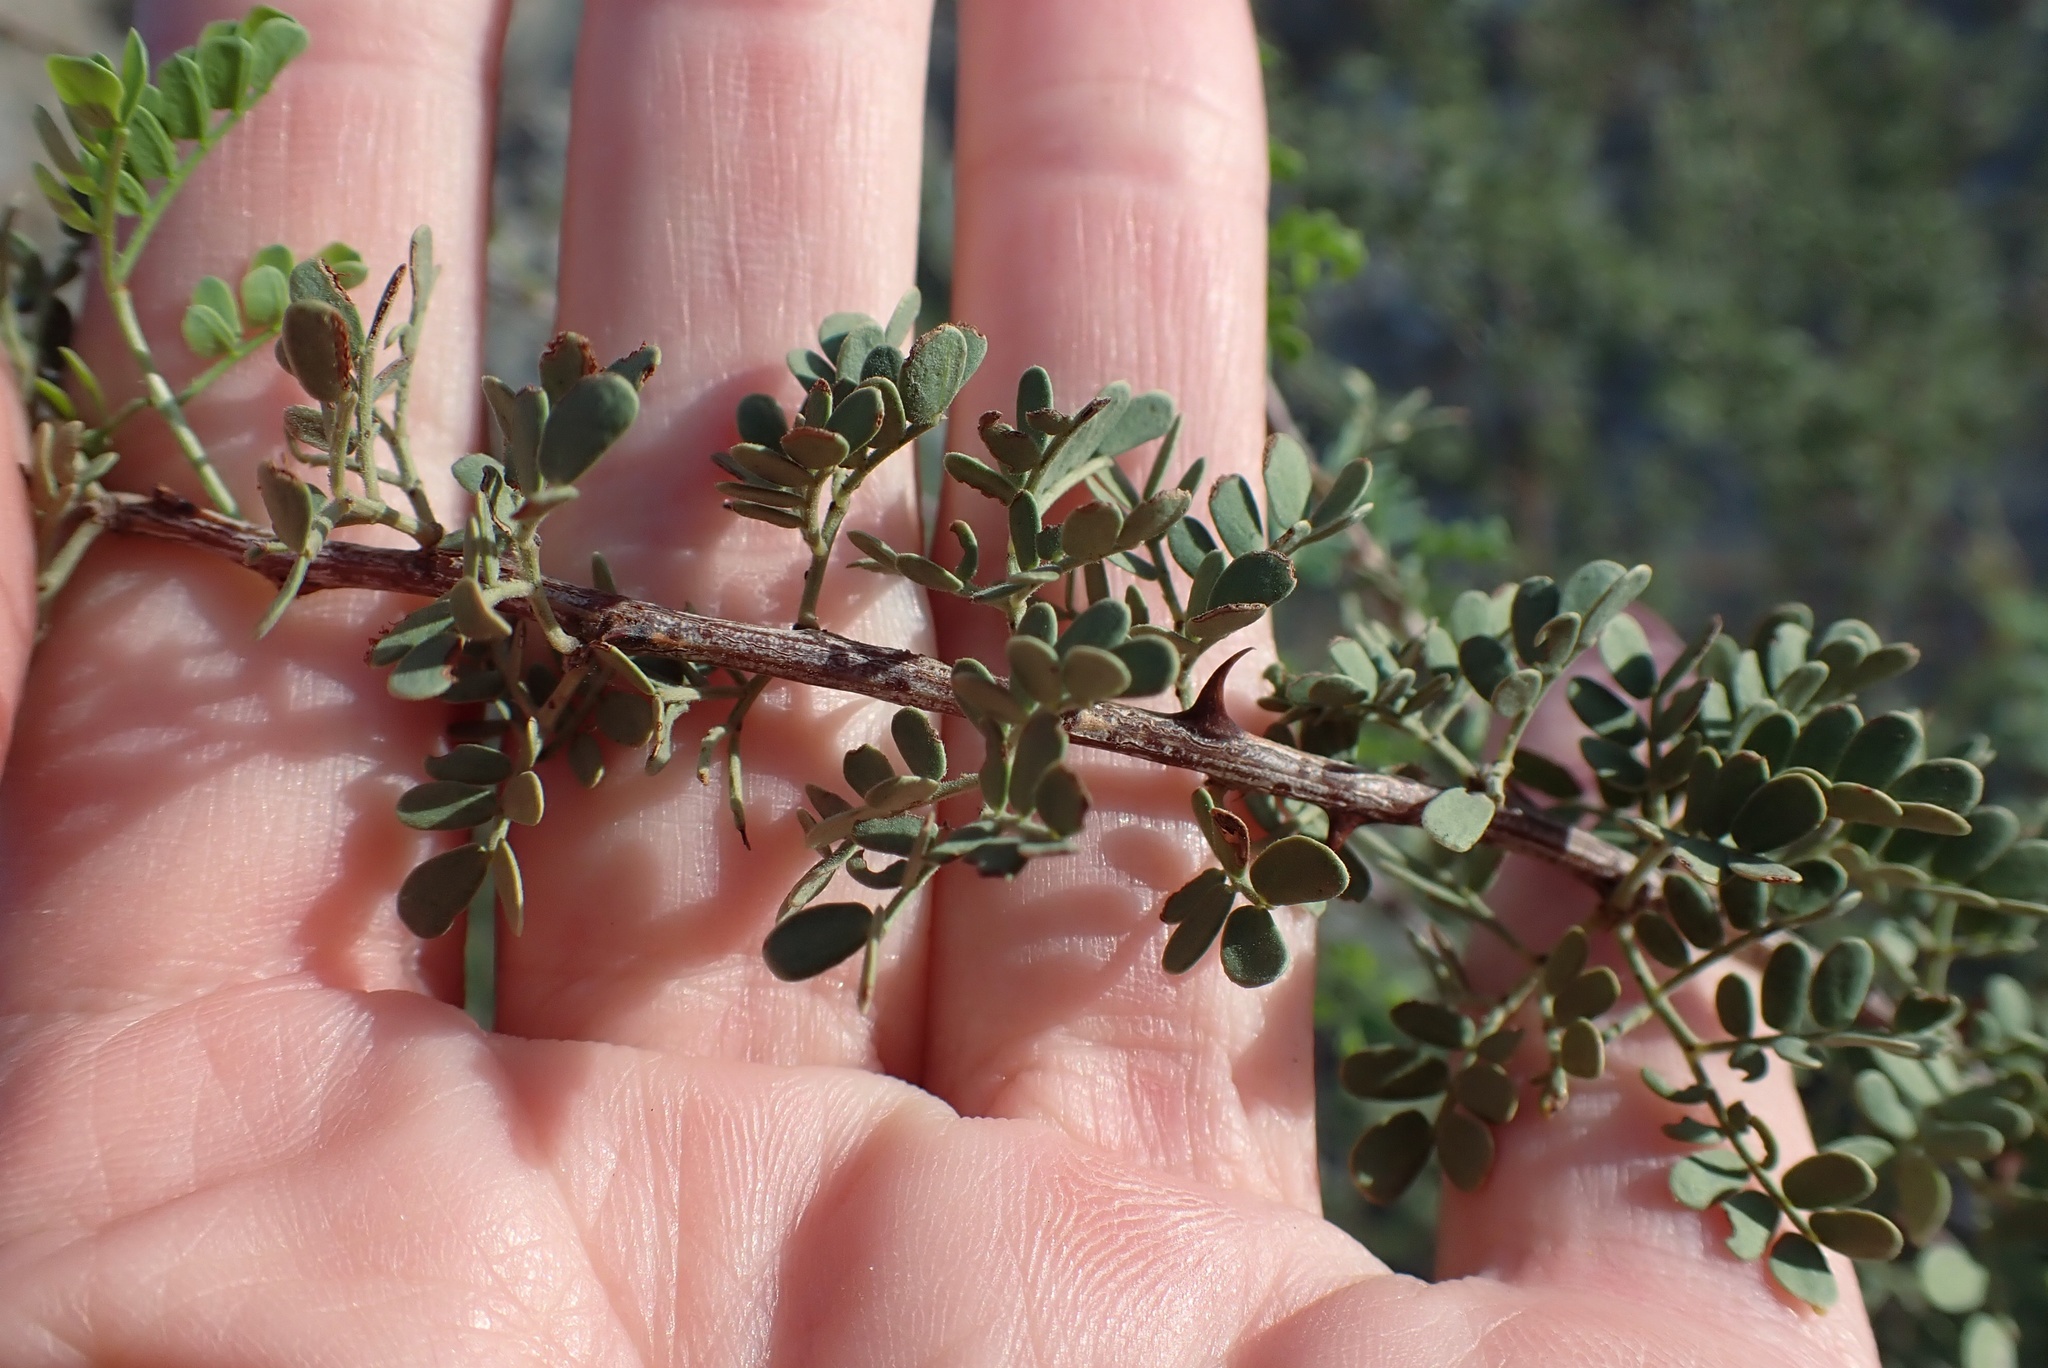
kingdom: Plantae
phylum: Tracheophyta
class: Magnoliopsida
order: Fabales
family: Fabaceae
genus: Senegalia
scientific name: Senegalia greggii
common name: Texas-mimosa
